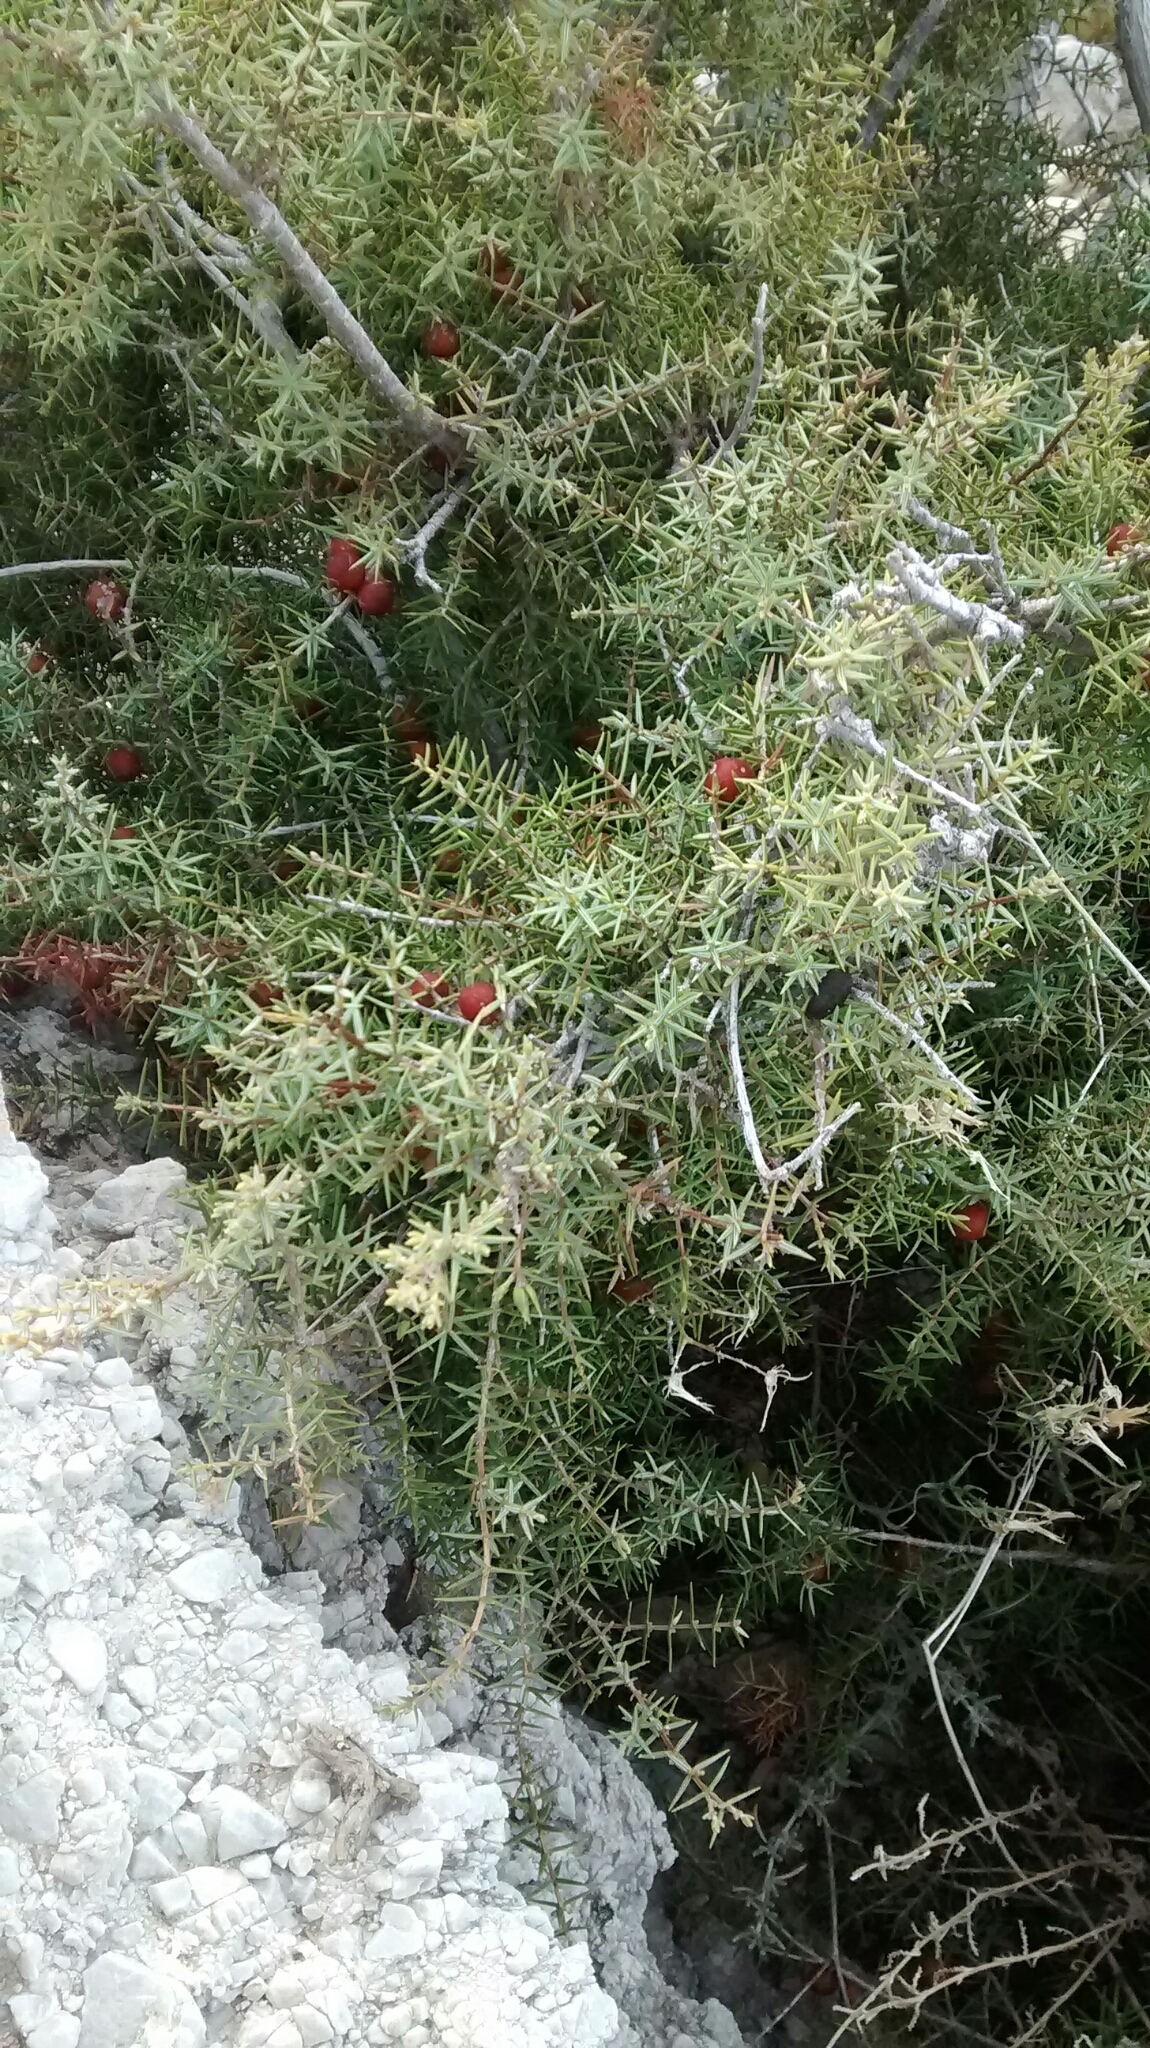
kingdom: Plantae
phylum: Tracheophyta
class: Pinopsida
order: Pinales
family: Cupressaceae
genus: Juniperus
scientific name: Juniperus oxycedrus
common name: Prickly juniper
